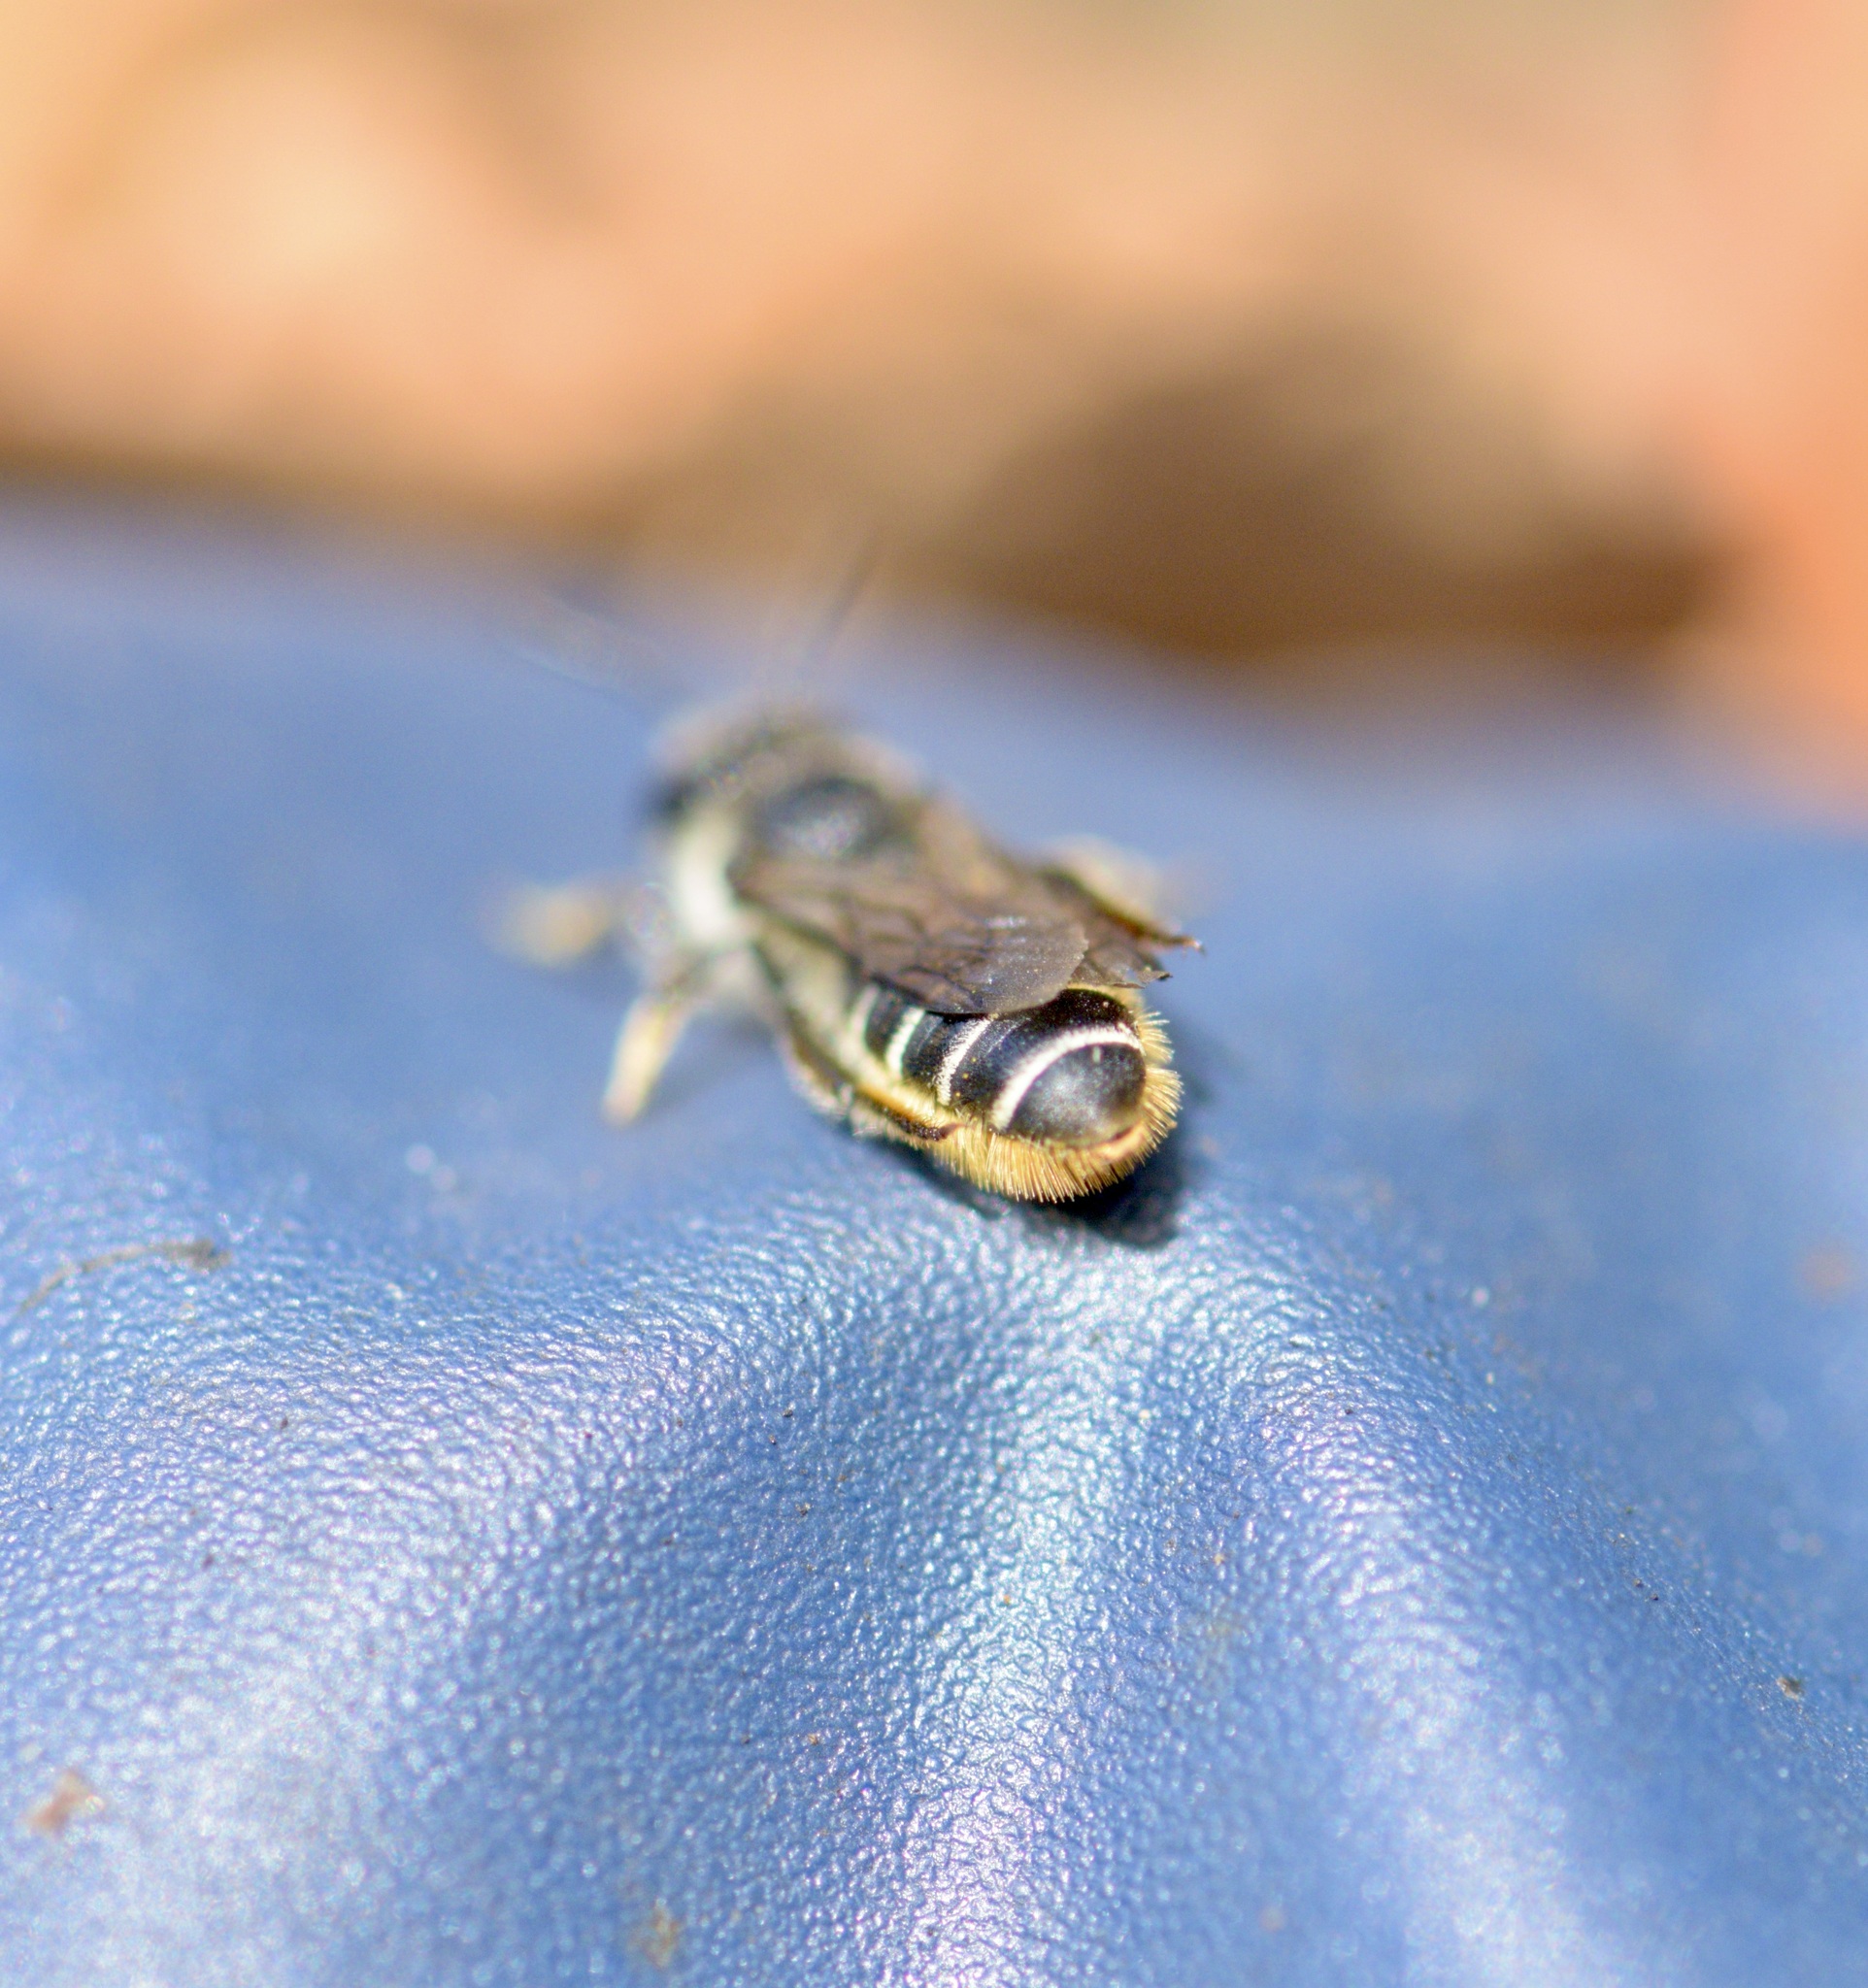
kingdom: Animalia
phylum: Arthropoda
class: Insecta
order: Hymenoptera
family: Megachilidae
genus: Megachile
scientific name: Megachile relativa
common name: Golden-tailed leafcutter
